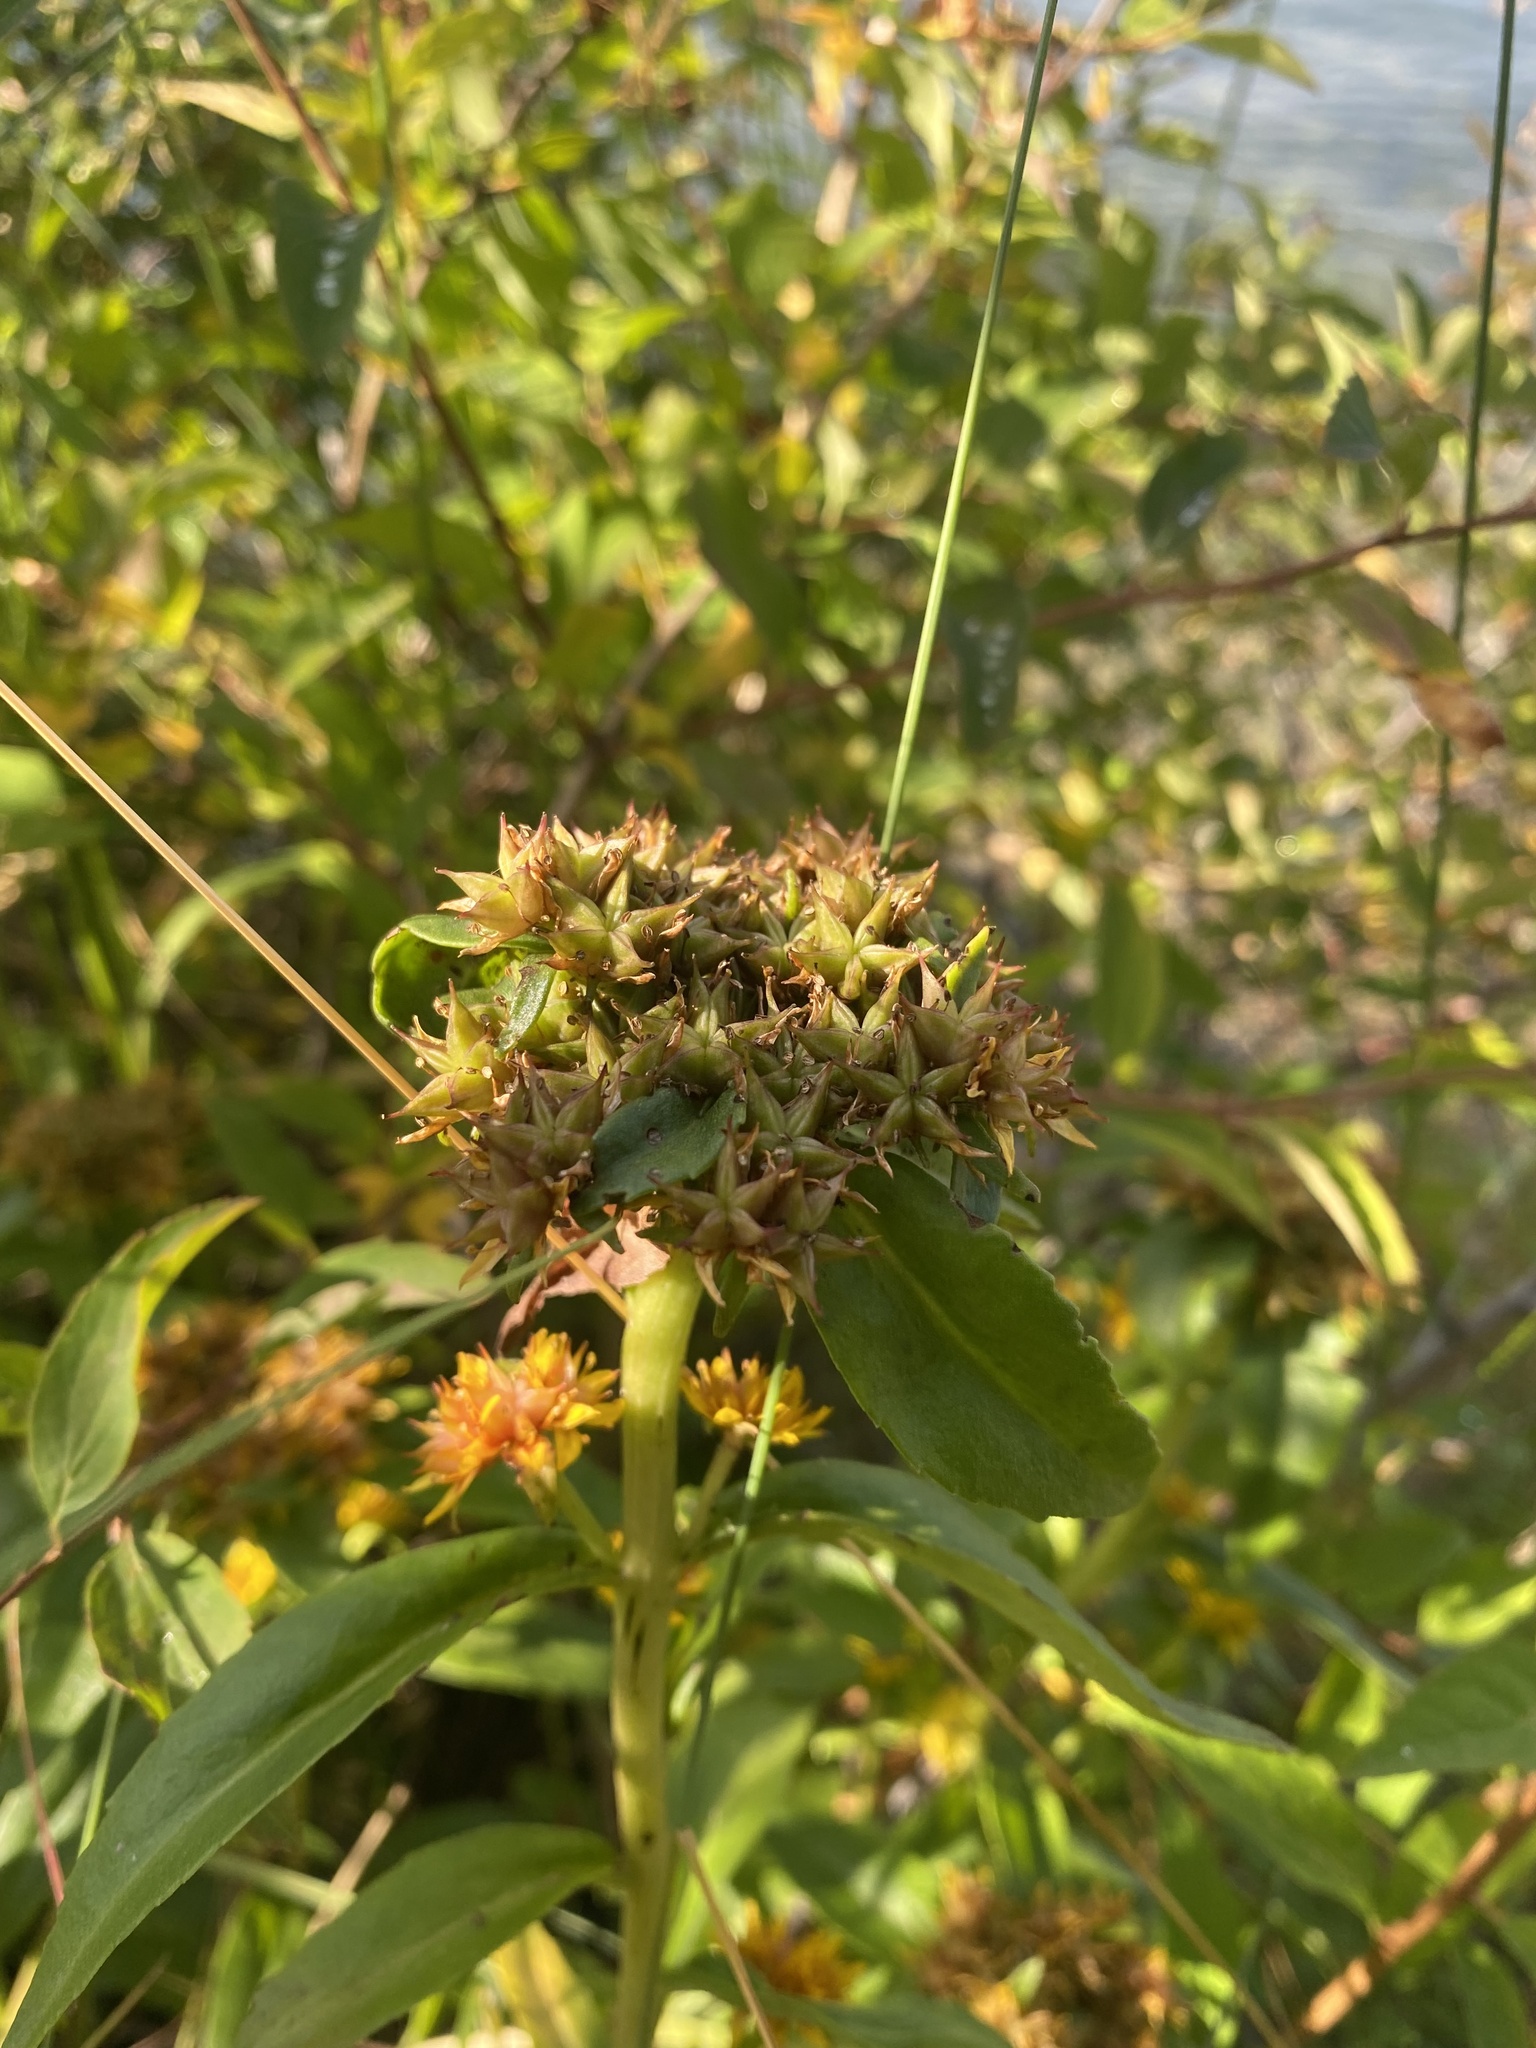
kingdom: Plantae
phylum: Tracheophyta
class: Magnoliopsida
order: Saxifragales
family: Crassulaceae
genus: Phedimus
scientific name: Phedimus aizoon
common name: Orpin aizoon
